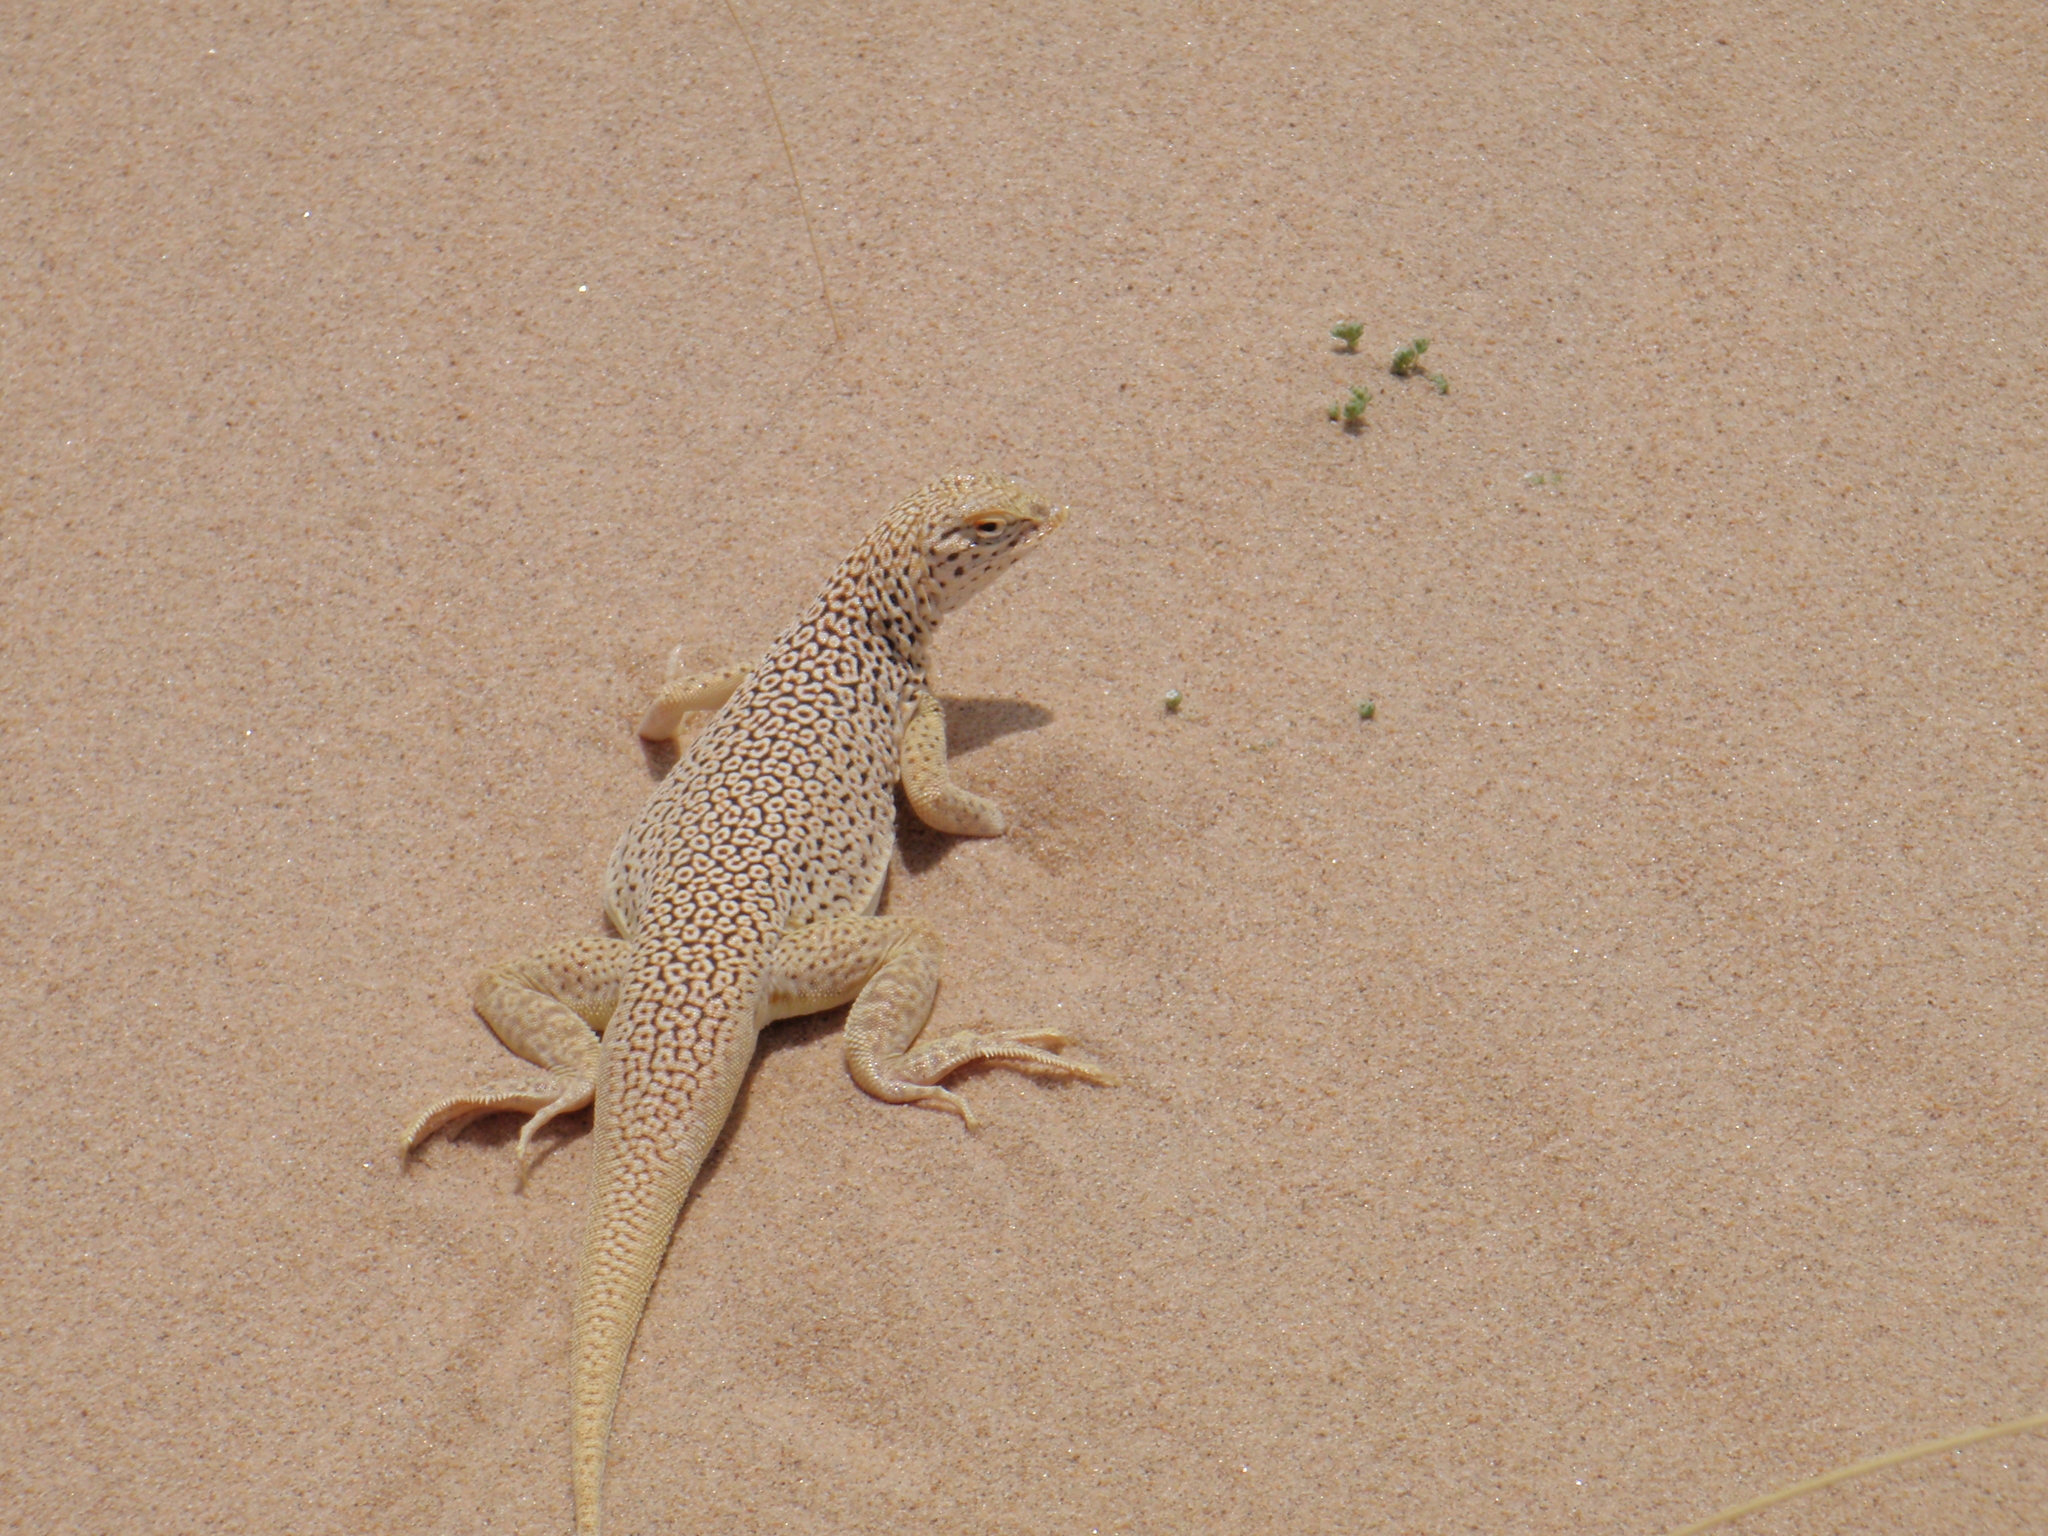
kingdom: Animalia
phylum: Chordata
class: Squamata
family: Phrynosomatidae
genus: Uma
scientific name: Uma scoparia
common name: Mojave fringe-toed lizard
